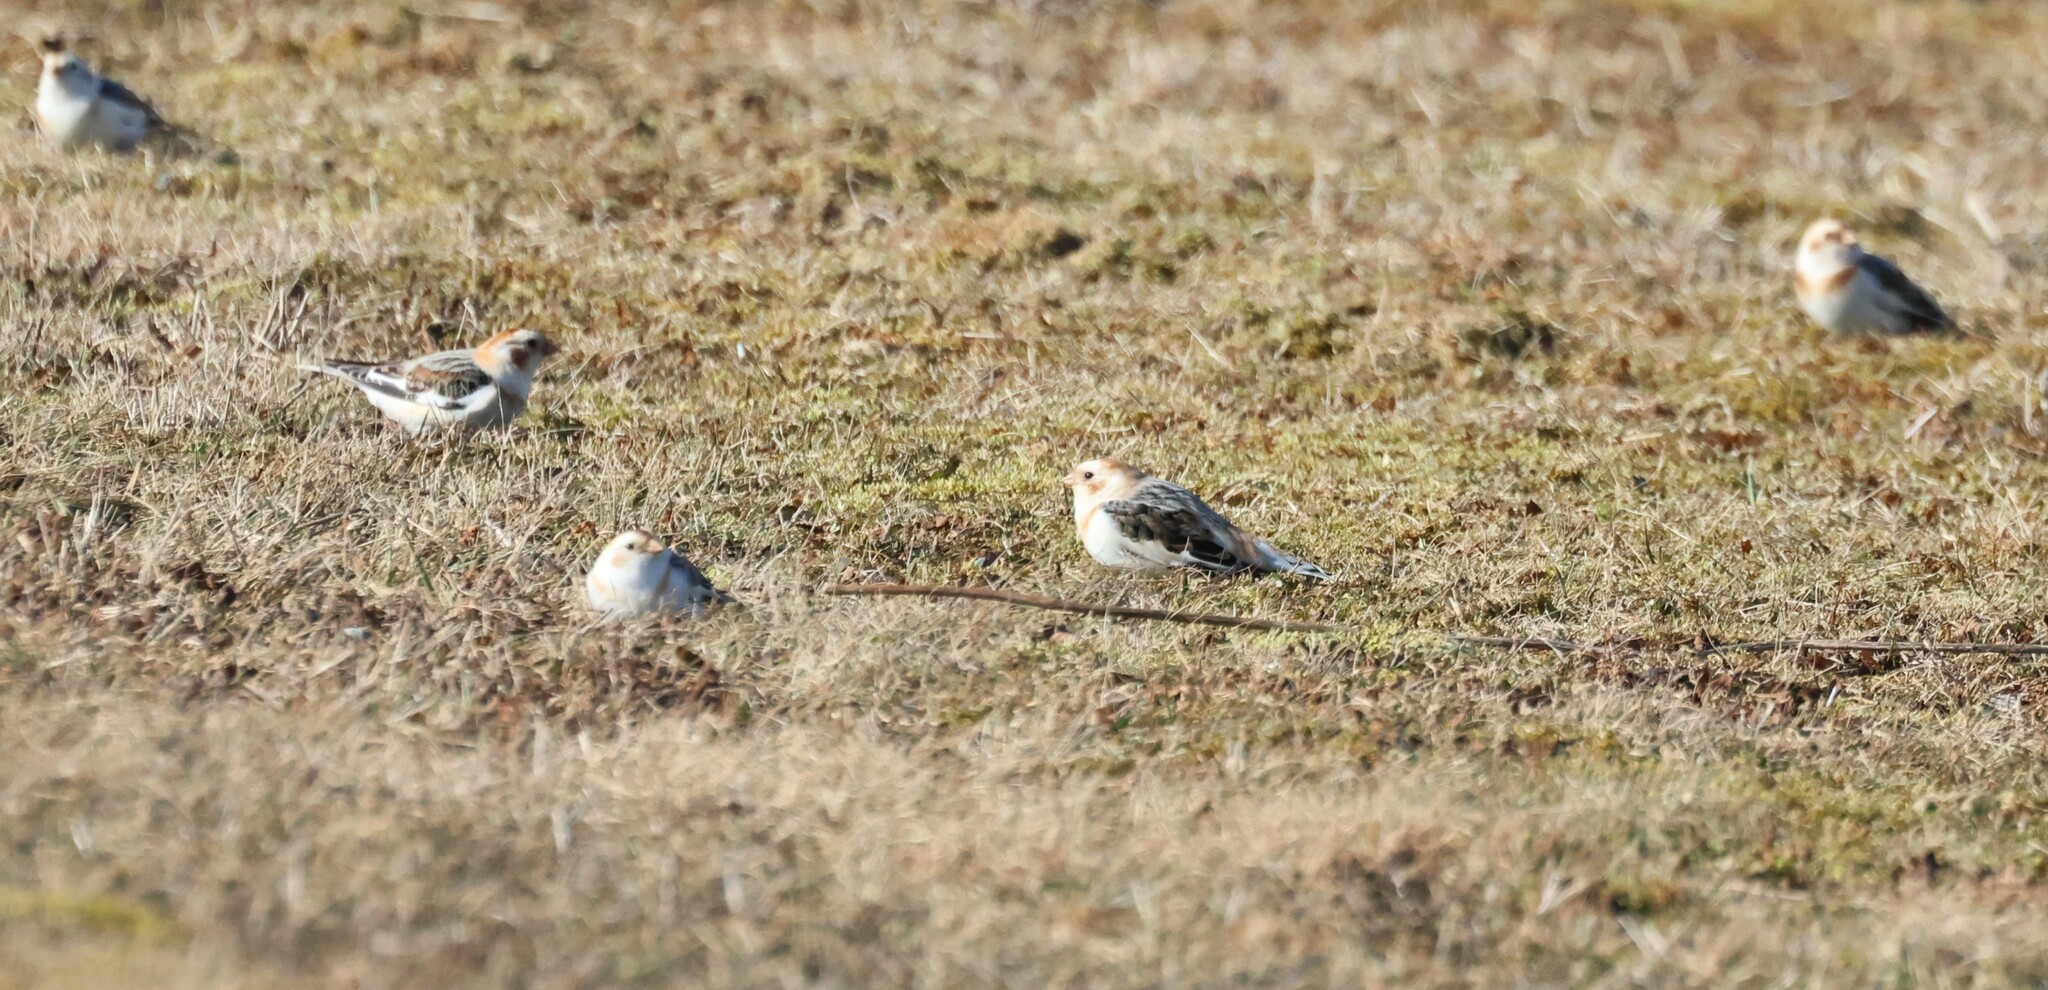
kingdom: Animalia
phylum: Chordata
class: Aves
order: Passeriformes
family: Calcariidae
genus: Plectrophenax
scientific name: Plectrophenax nivalis
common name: Snow bunting
